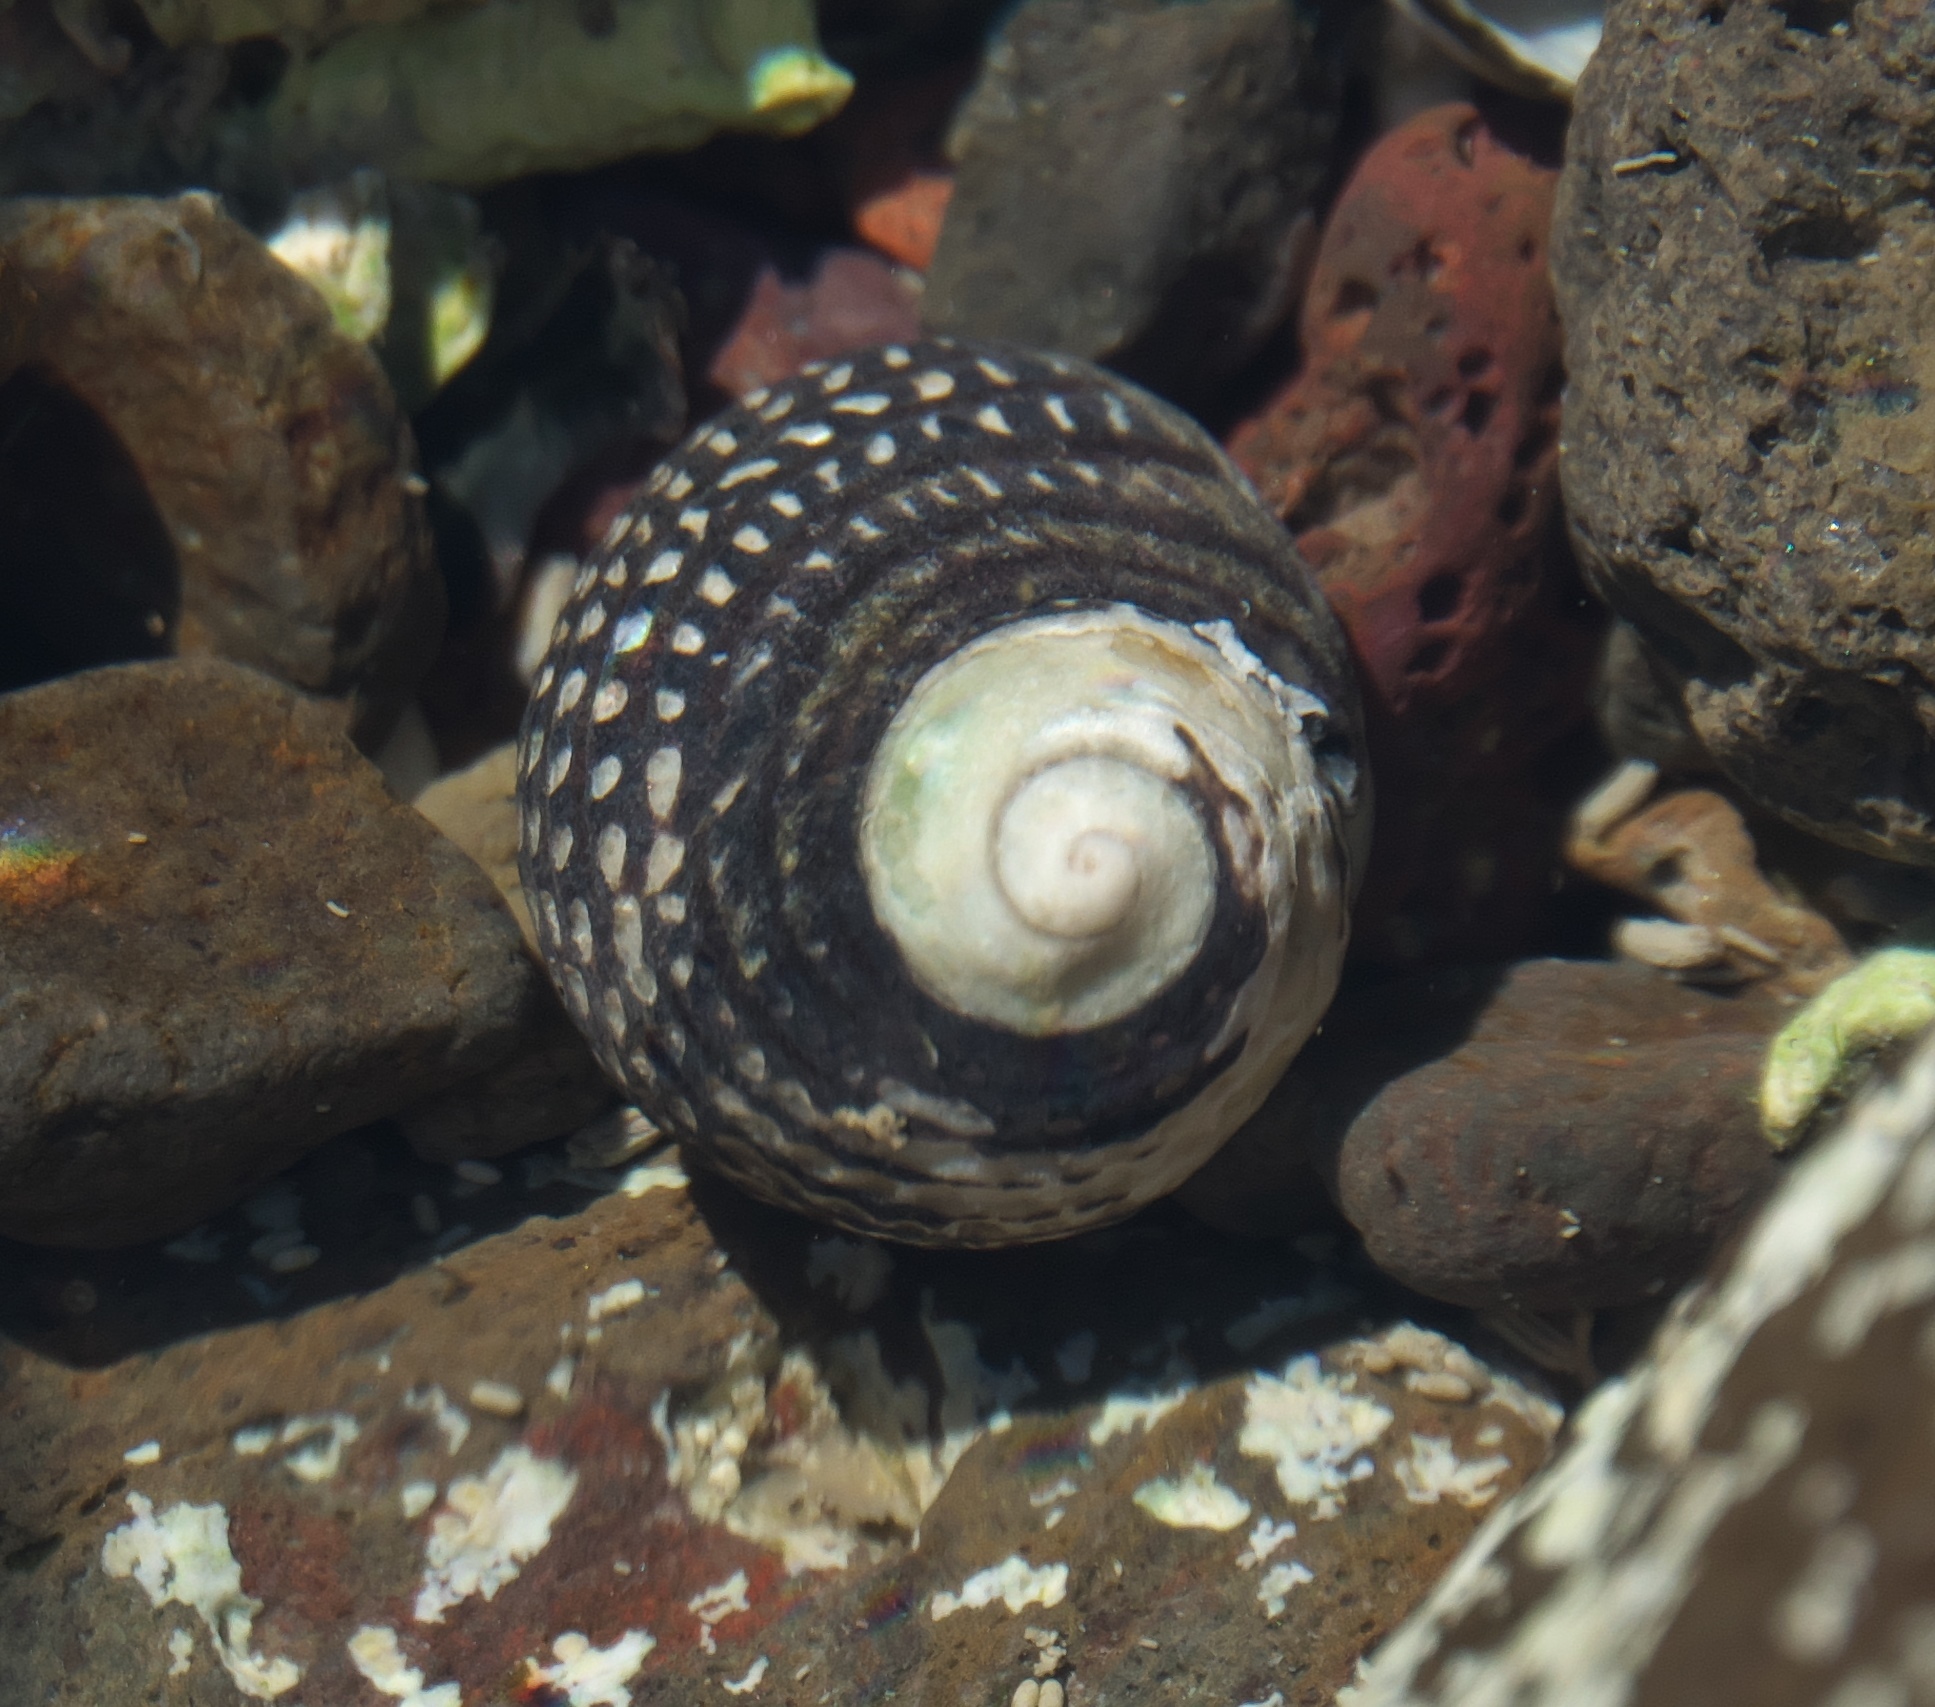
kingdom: Animalia
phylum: Mollusca
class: Gastropoda
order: Trochida
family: Trochidae
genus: Diloma
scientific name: Diloma aethiops
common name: Scorched monodont
